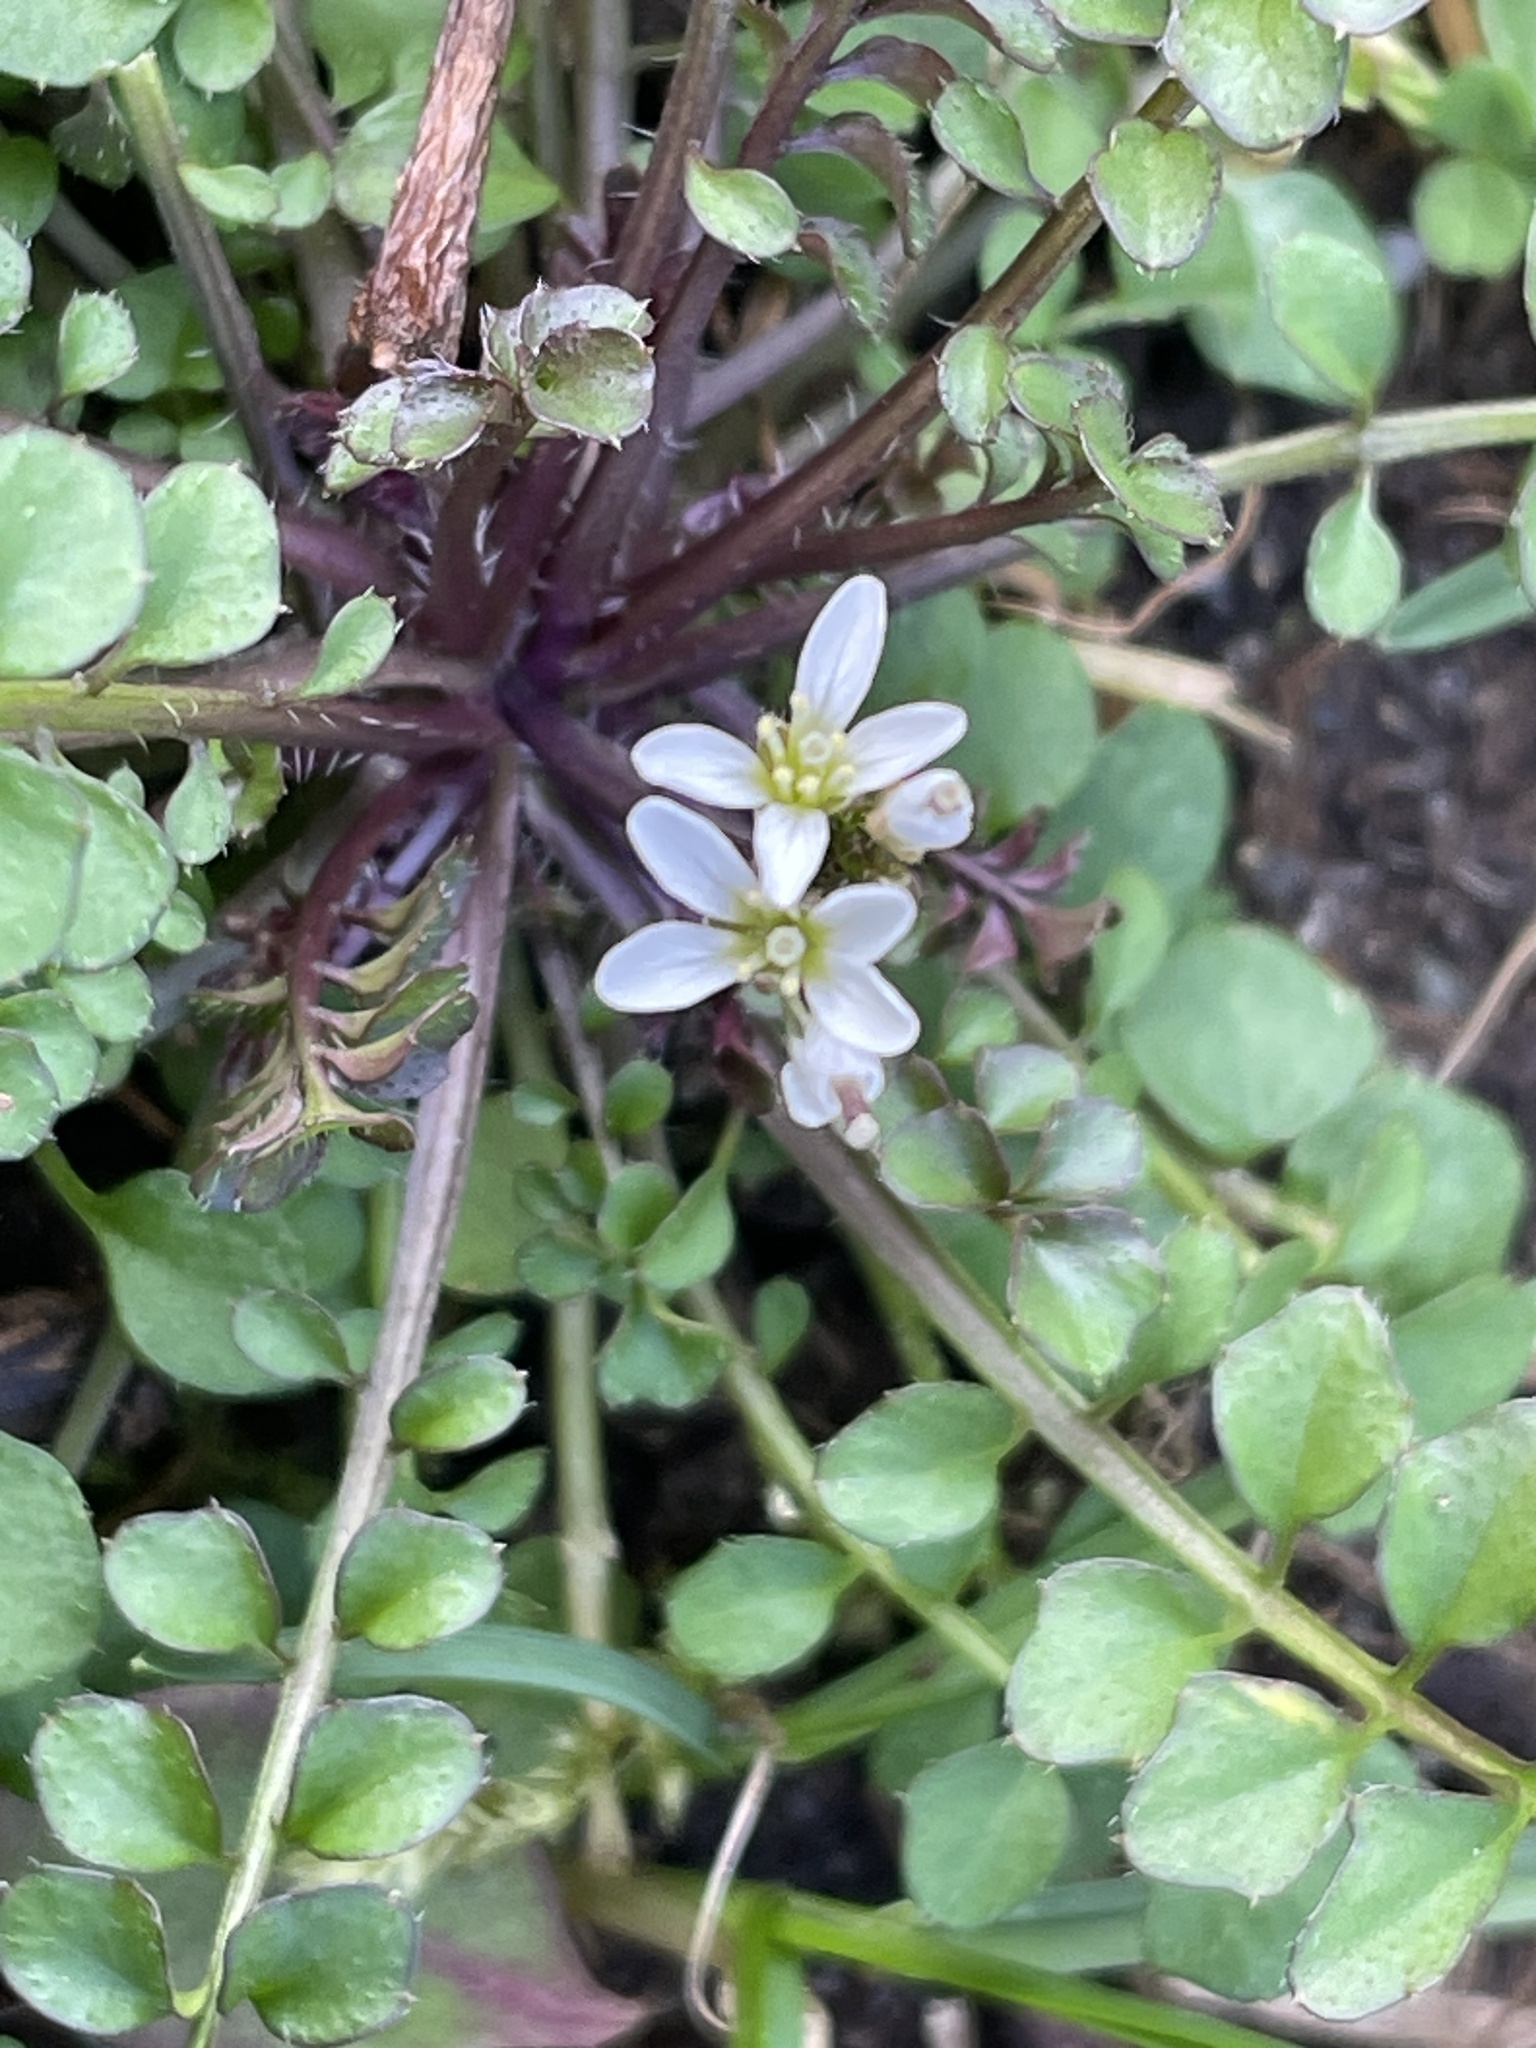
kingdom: Plantae
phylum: Tracheophyta
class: Magnoliopsida
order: Brassicales
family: Brassicaceae
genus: Cardamine
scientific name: Cardamine hirsuta
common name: Hairy bittercress
